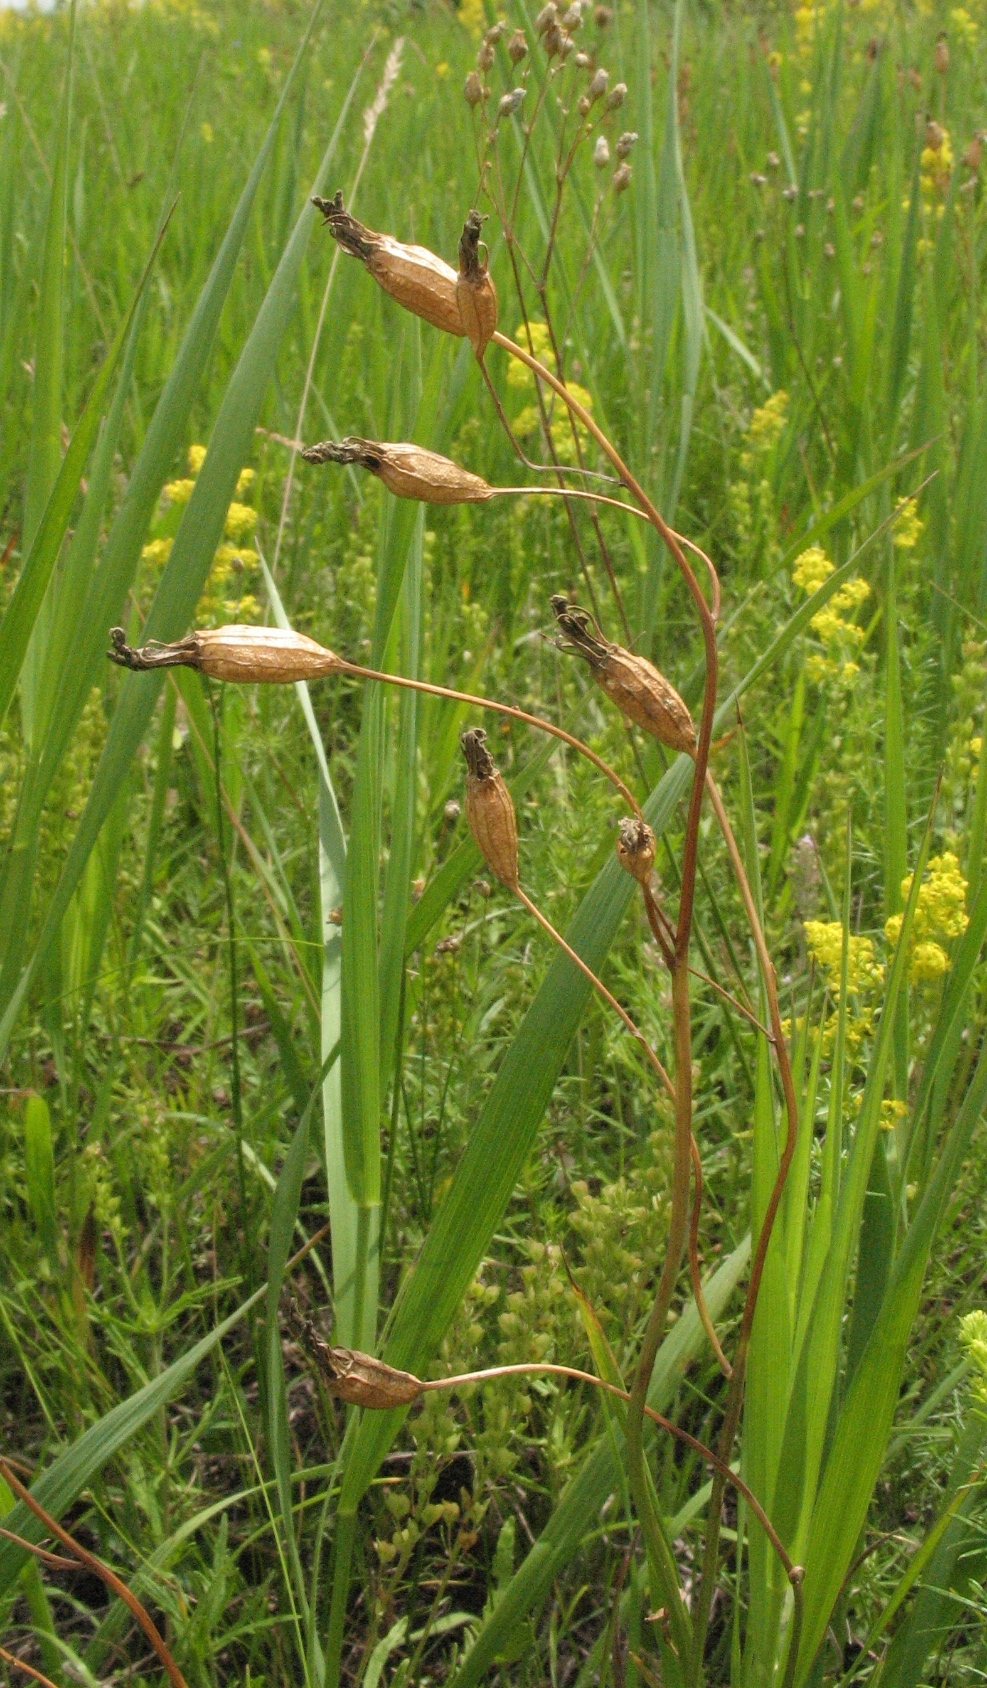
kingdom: Plantae
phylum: Tracheophyta
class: Magnoliopsida
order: Asterales
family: Campanulaceae
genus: Campanula
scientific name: Campanula stevenii
